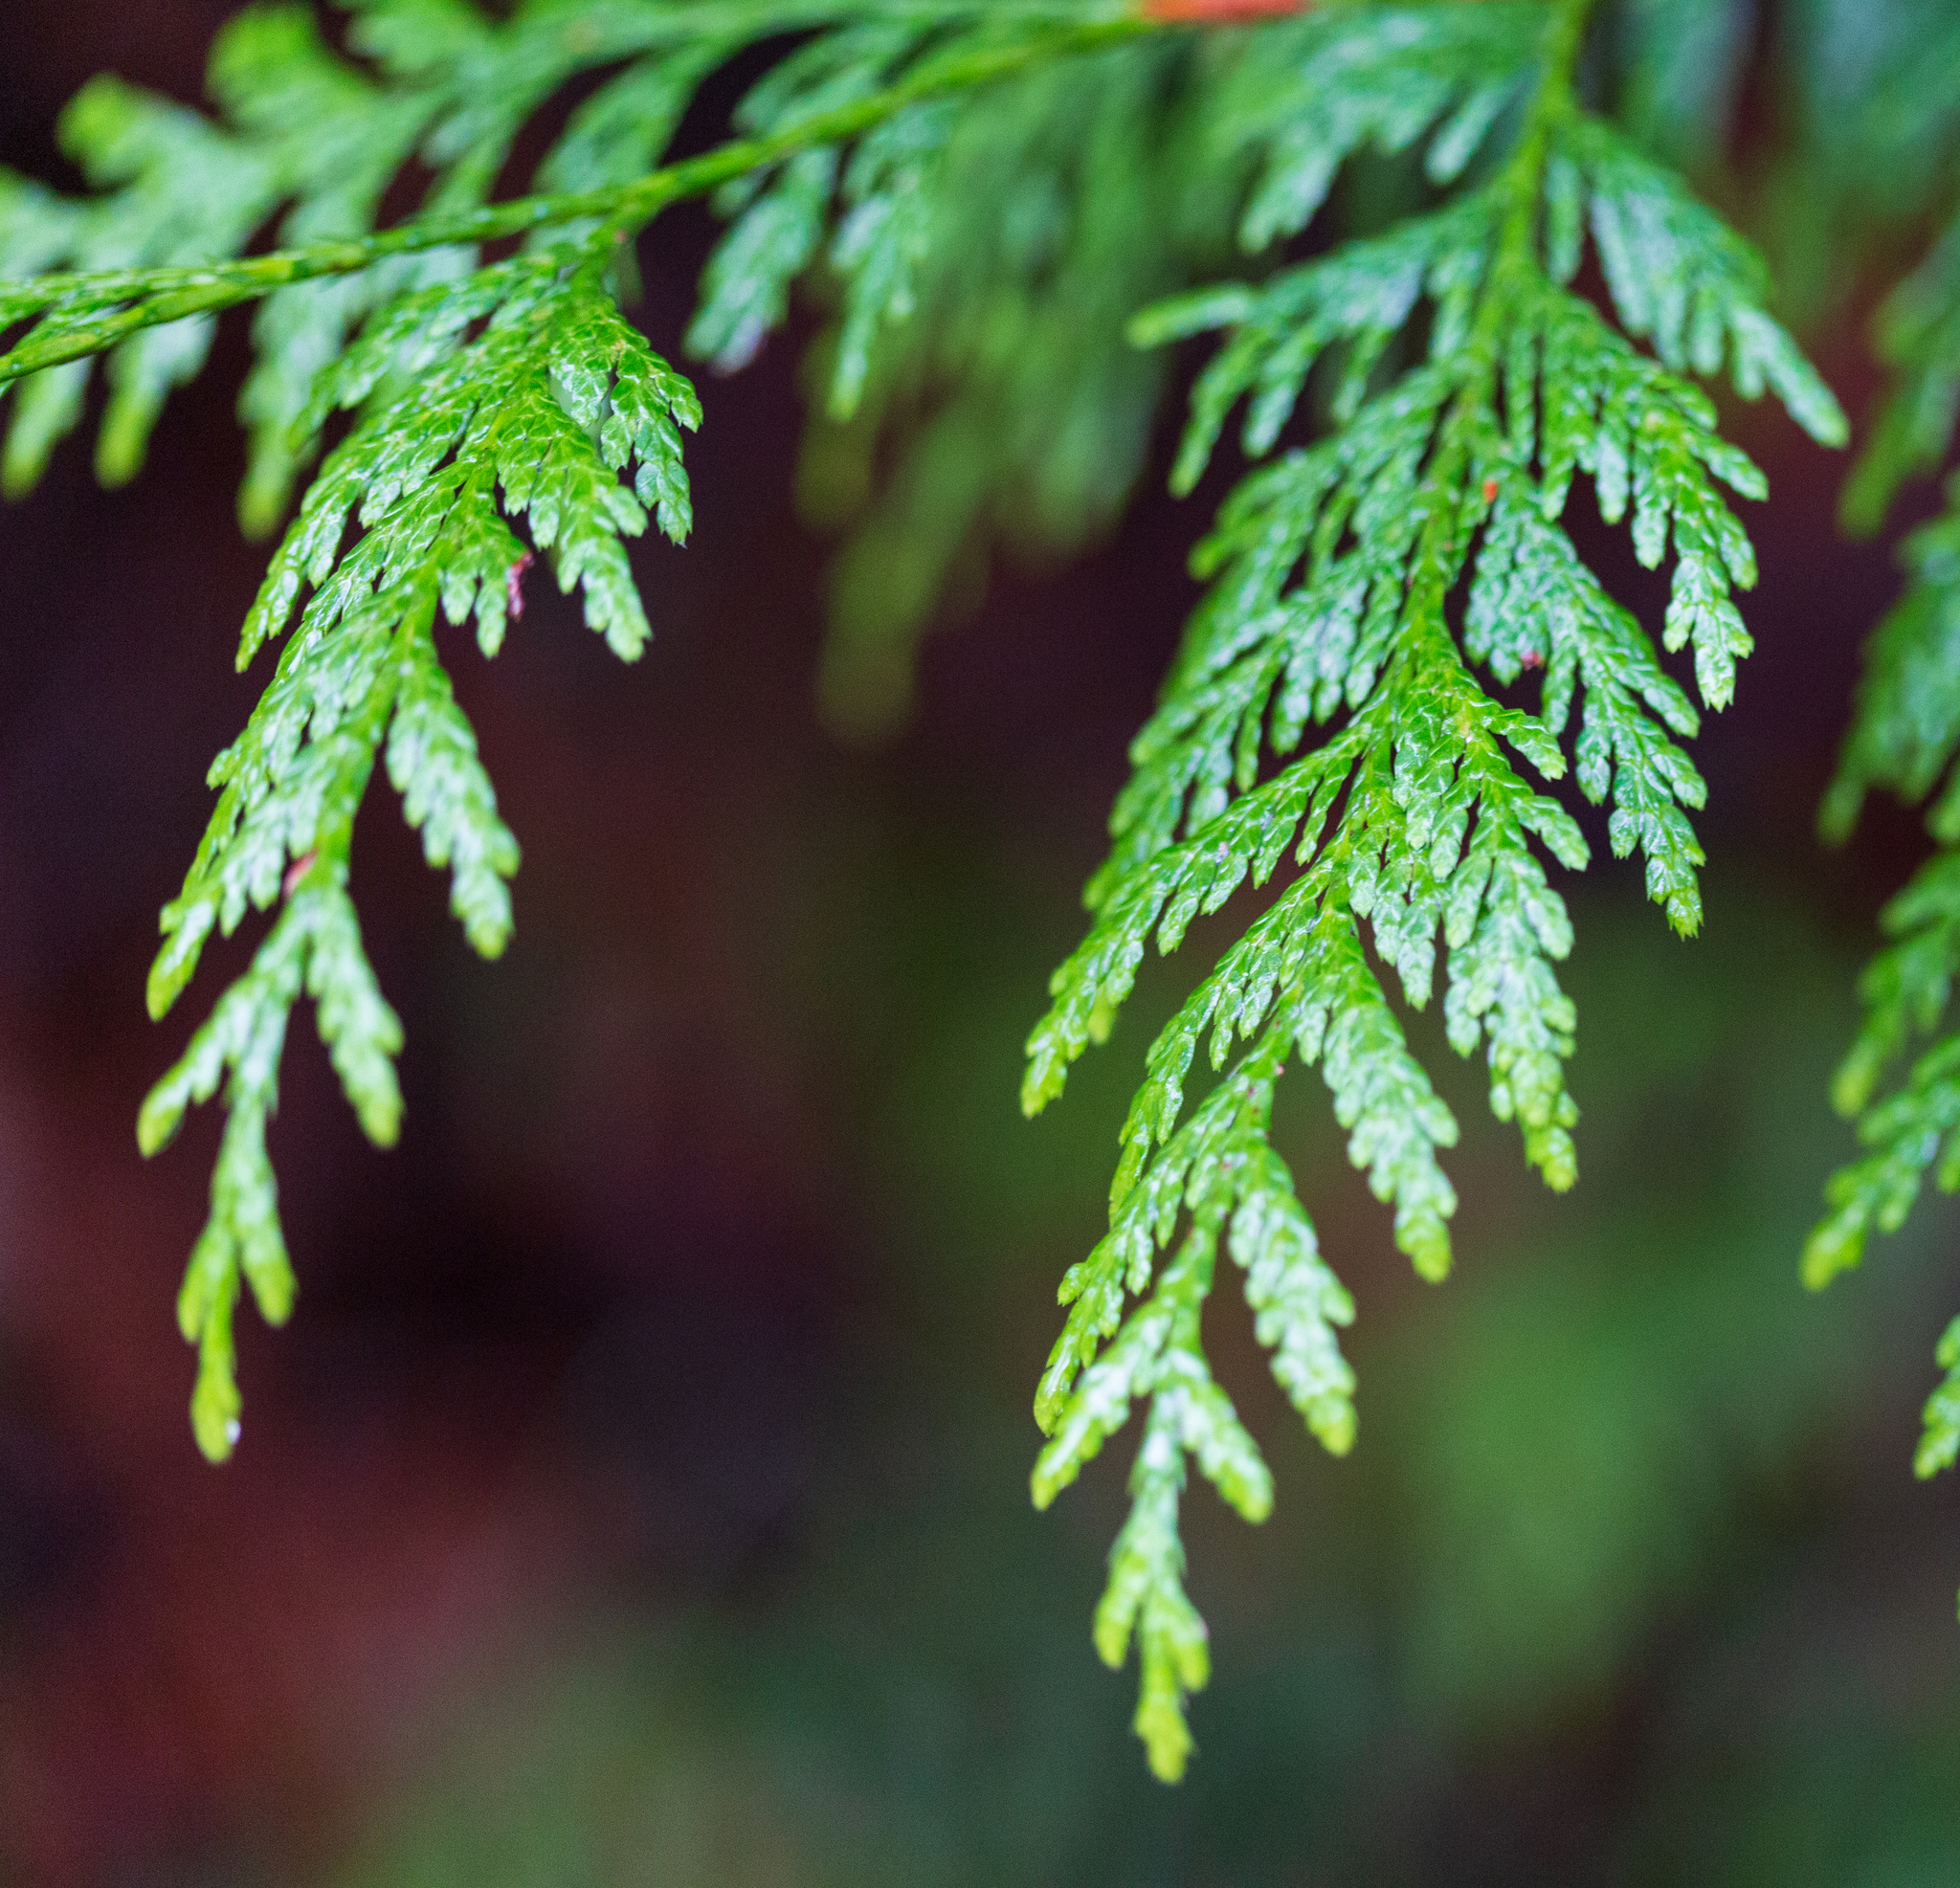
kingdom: Plantae
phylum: Tracheophyta
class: Pinopsida
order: Pinales
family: Cupressaceae
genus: Thuja
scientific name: Thuja plicata
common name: Western red-cedar
